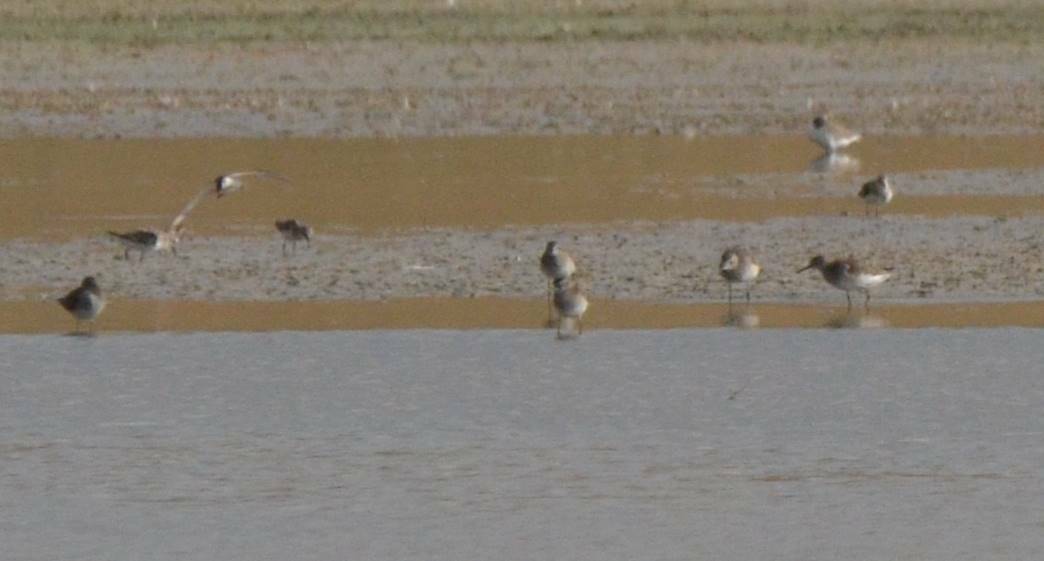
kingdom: Animalia
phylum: Chordata
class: Aves
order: Charadriiformes
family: Scolopacidae
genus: Tringa
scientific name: Tringa glareola
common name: Wood sandpiper
